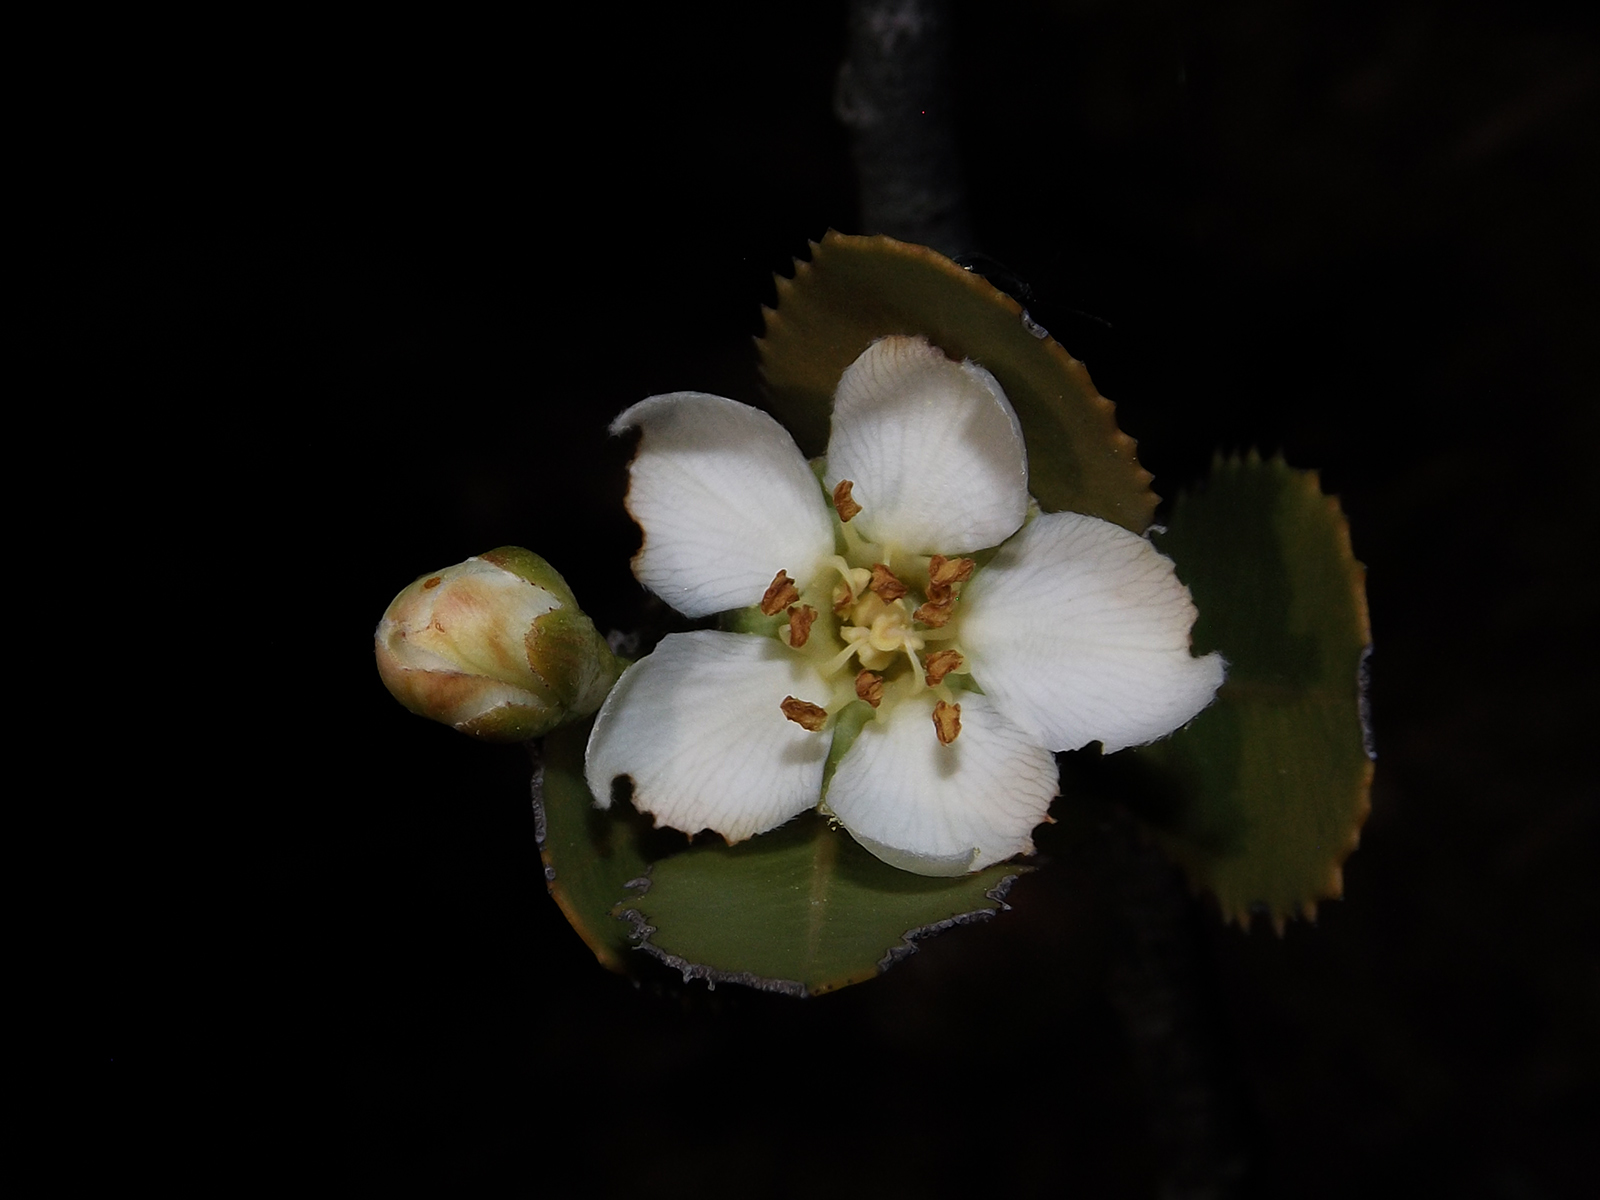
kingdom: Plantae
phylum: Tracheophyta
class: Magnoliopsida
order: Rosales
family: Rosaceae
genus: Kageneckia
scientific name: Kageneckia oblonga
